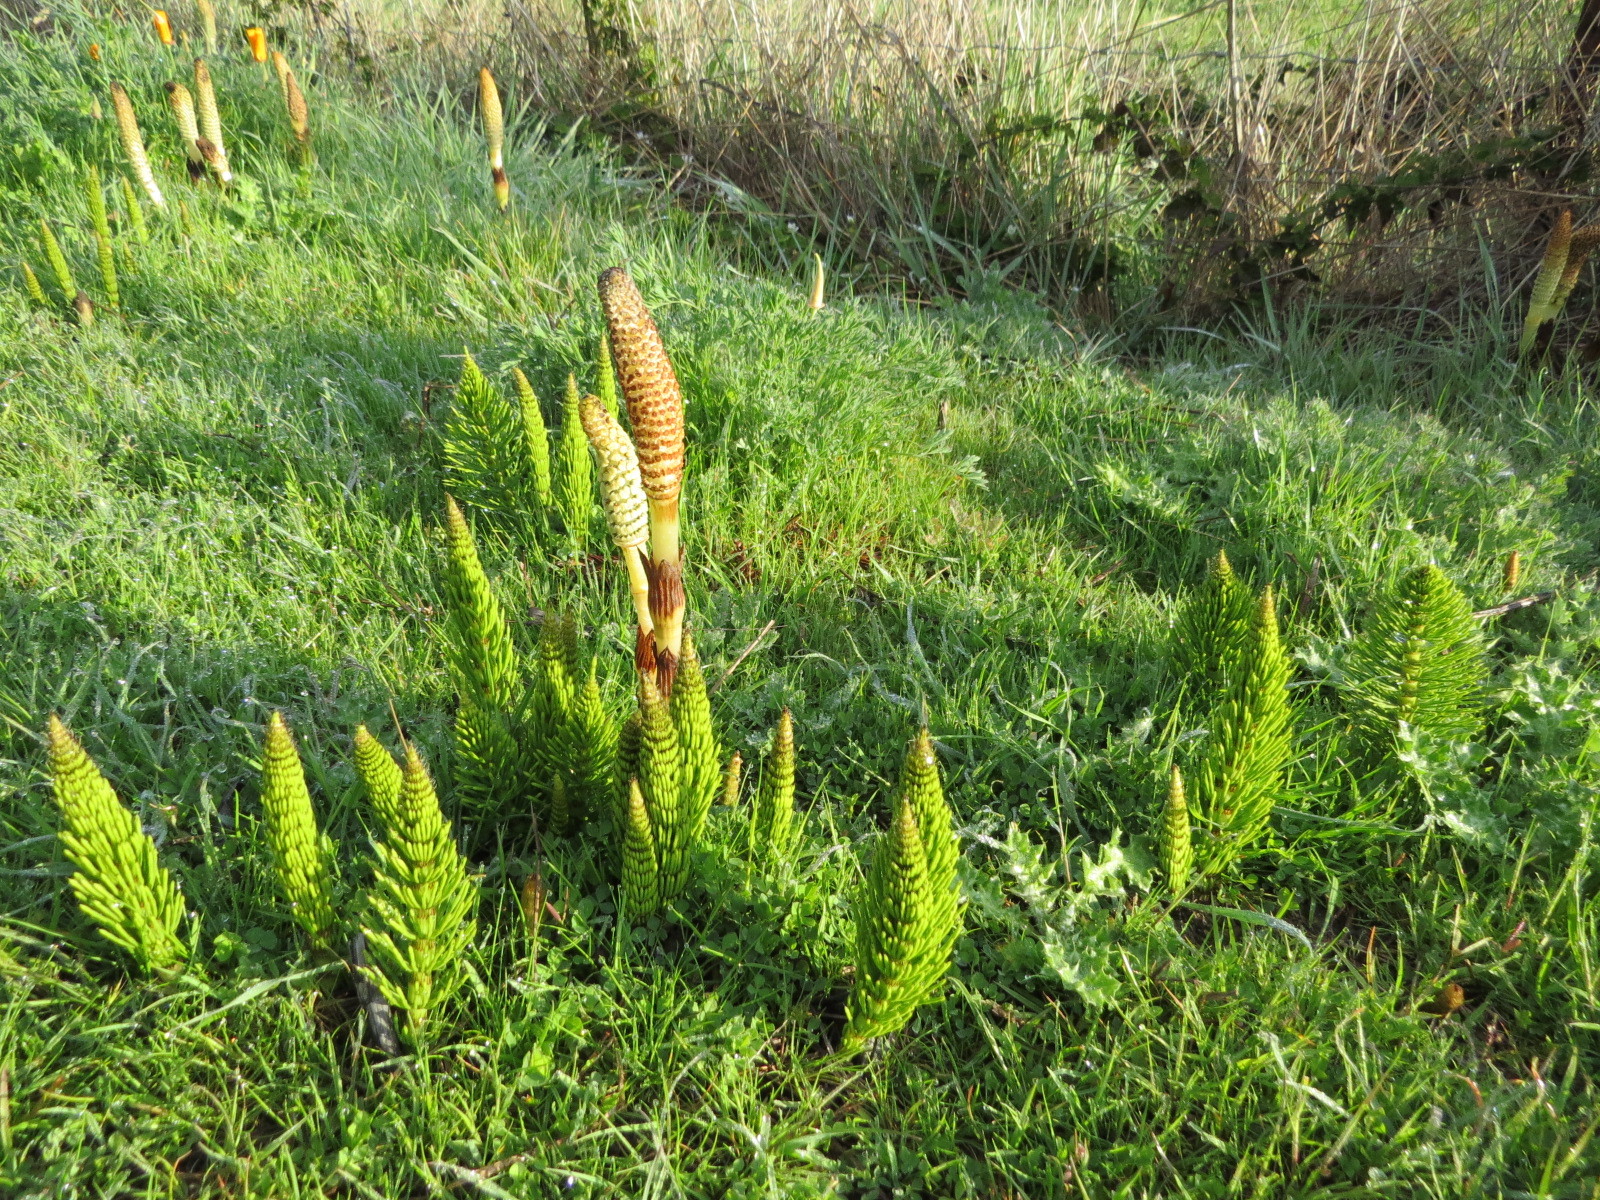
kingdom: Plantae
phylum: Tracheophyta
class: Polypodiopsida
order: Equisetales
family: Equisetaceae
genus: Equisetum
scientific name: Equisetum telmateia
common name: Great horsetail
